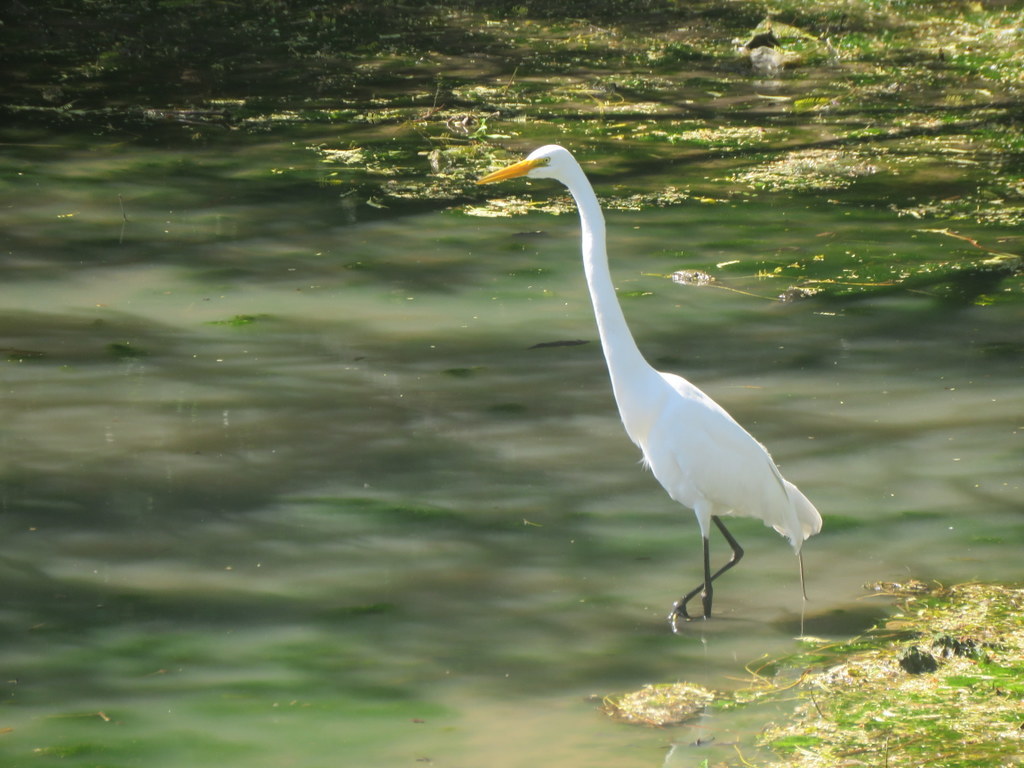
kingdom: Animalia
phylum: Chordata
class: Aves
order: Pelecaniformes
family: Ardeidae
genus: Ardea
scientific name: Ardea alba
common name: Great egret
